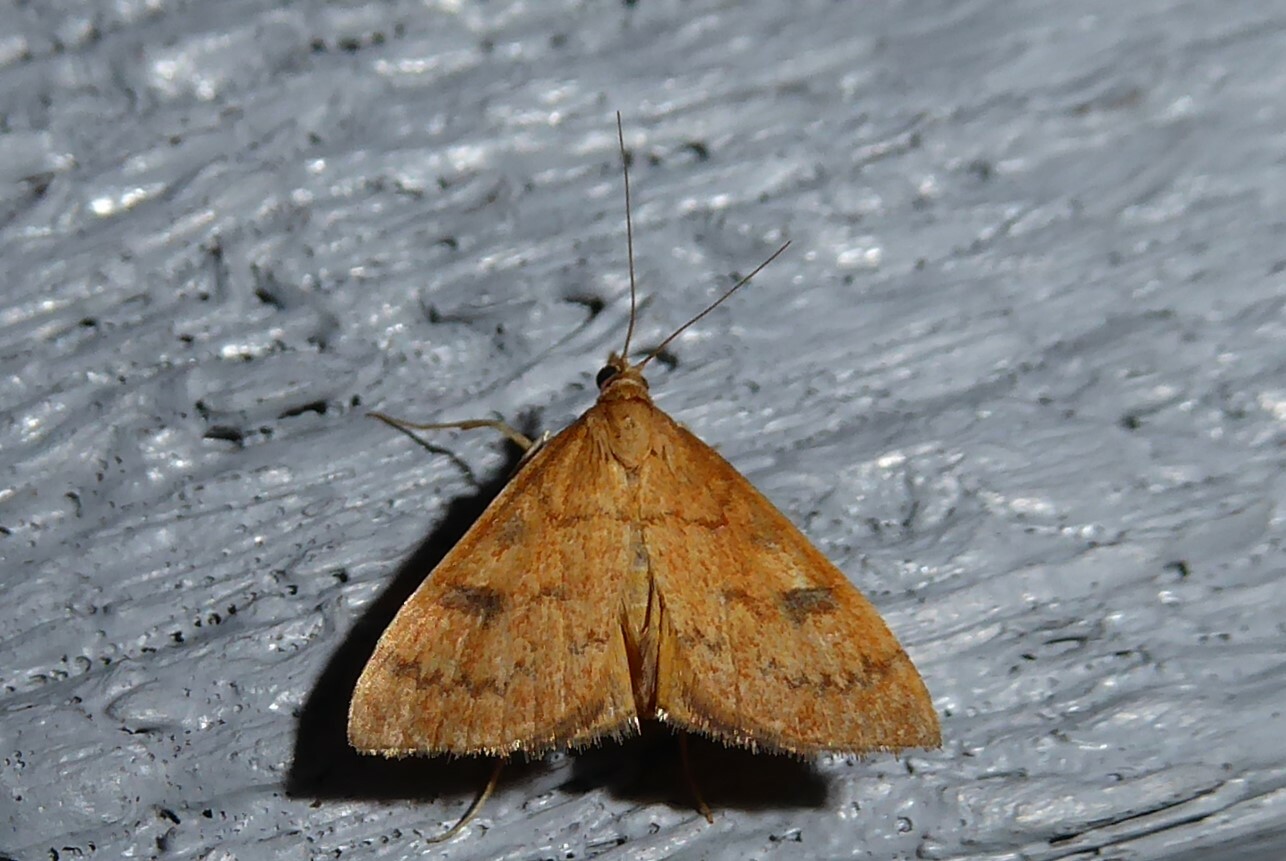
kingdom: Animalia
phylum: Arthropoda
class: Insecta
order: Lepidoptera
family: Crambidae
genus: Udea
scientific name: Udea Mnesictena flavidalis
